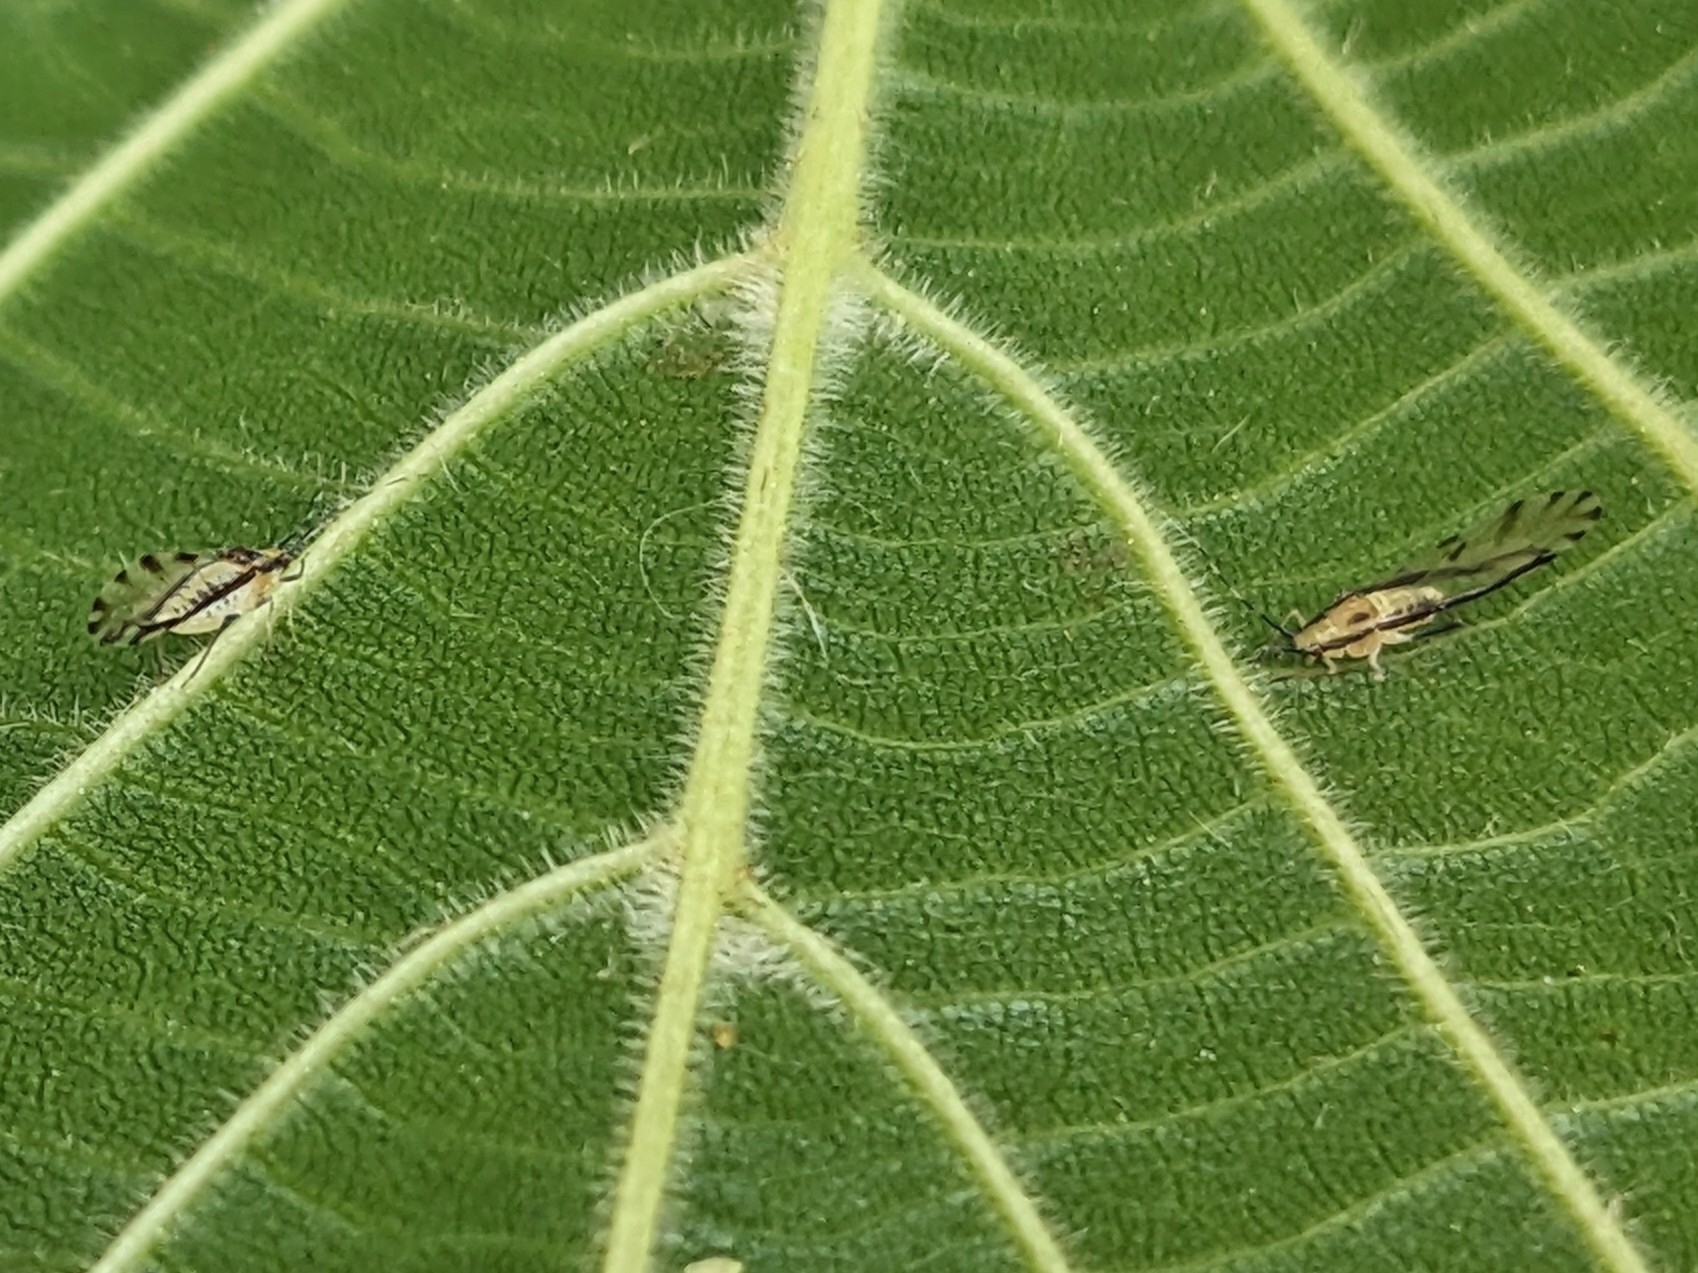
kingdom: Animalia
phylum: Arthropoda
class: Insecta
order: Hemiptera
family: Aphididae
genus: Eucallipterus
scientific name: Eucallipterus tiliae
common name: Aphid
